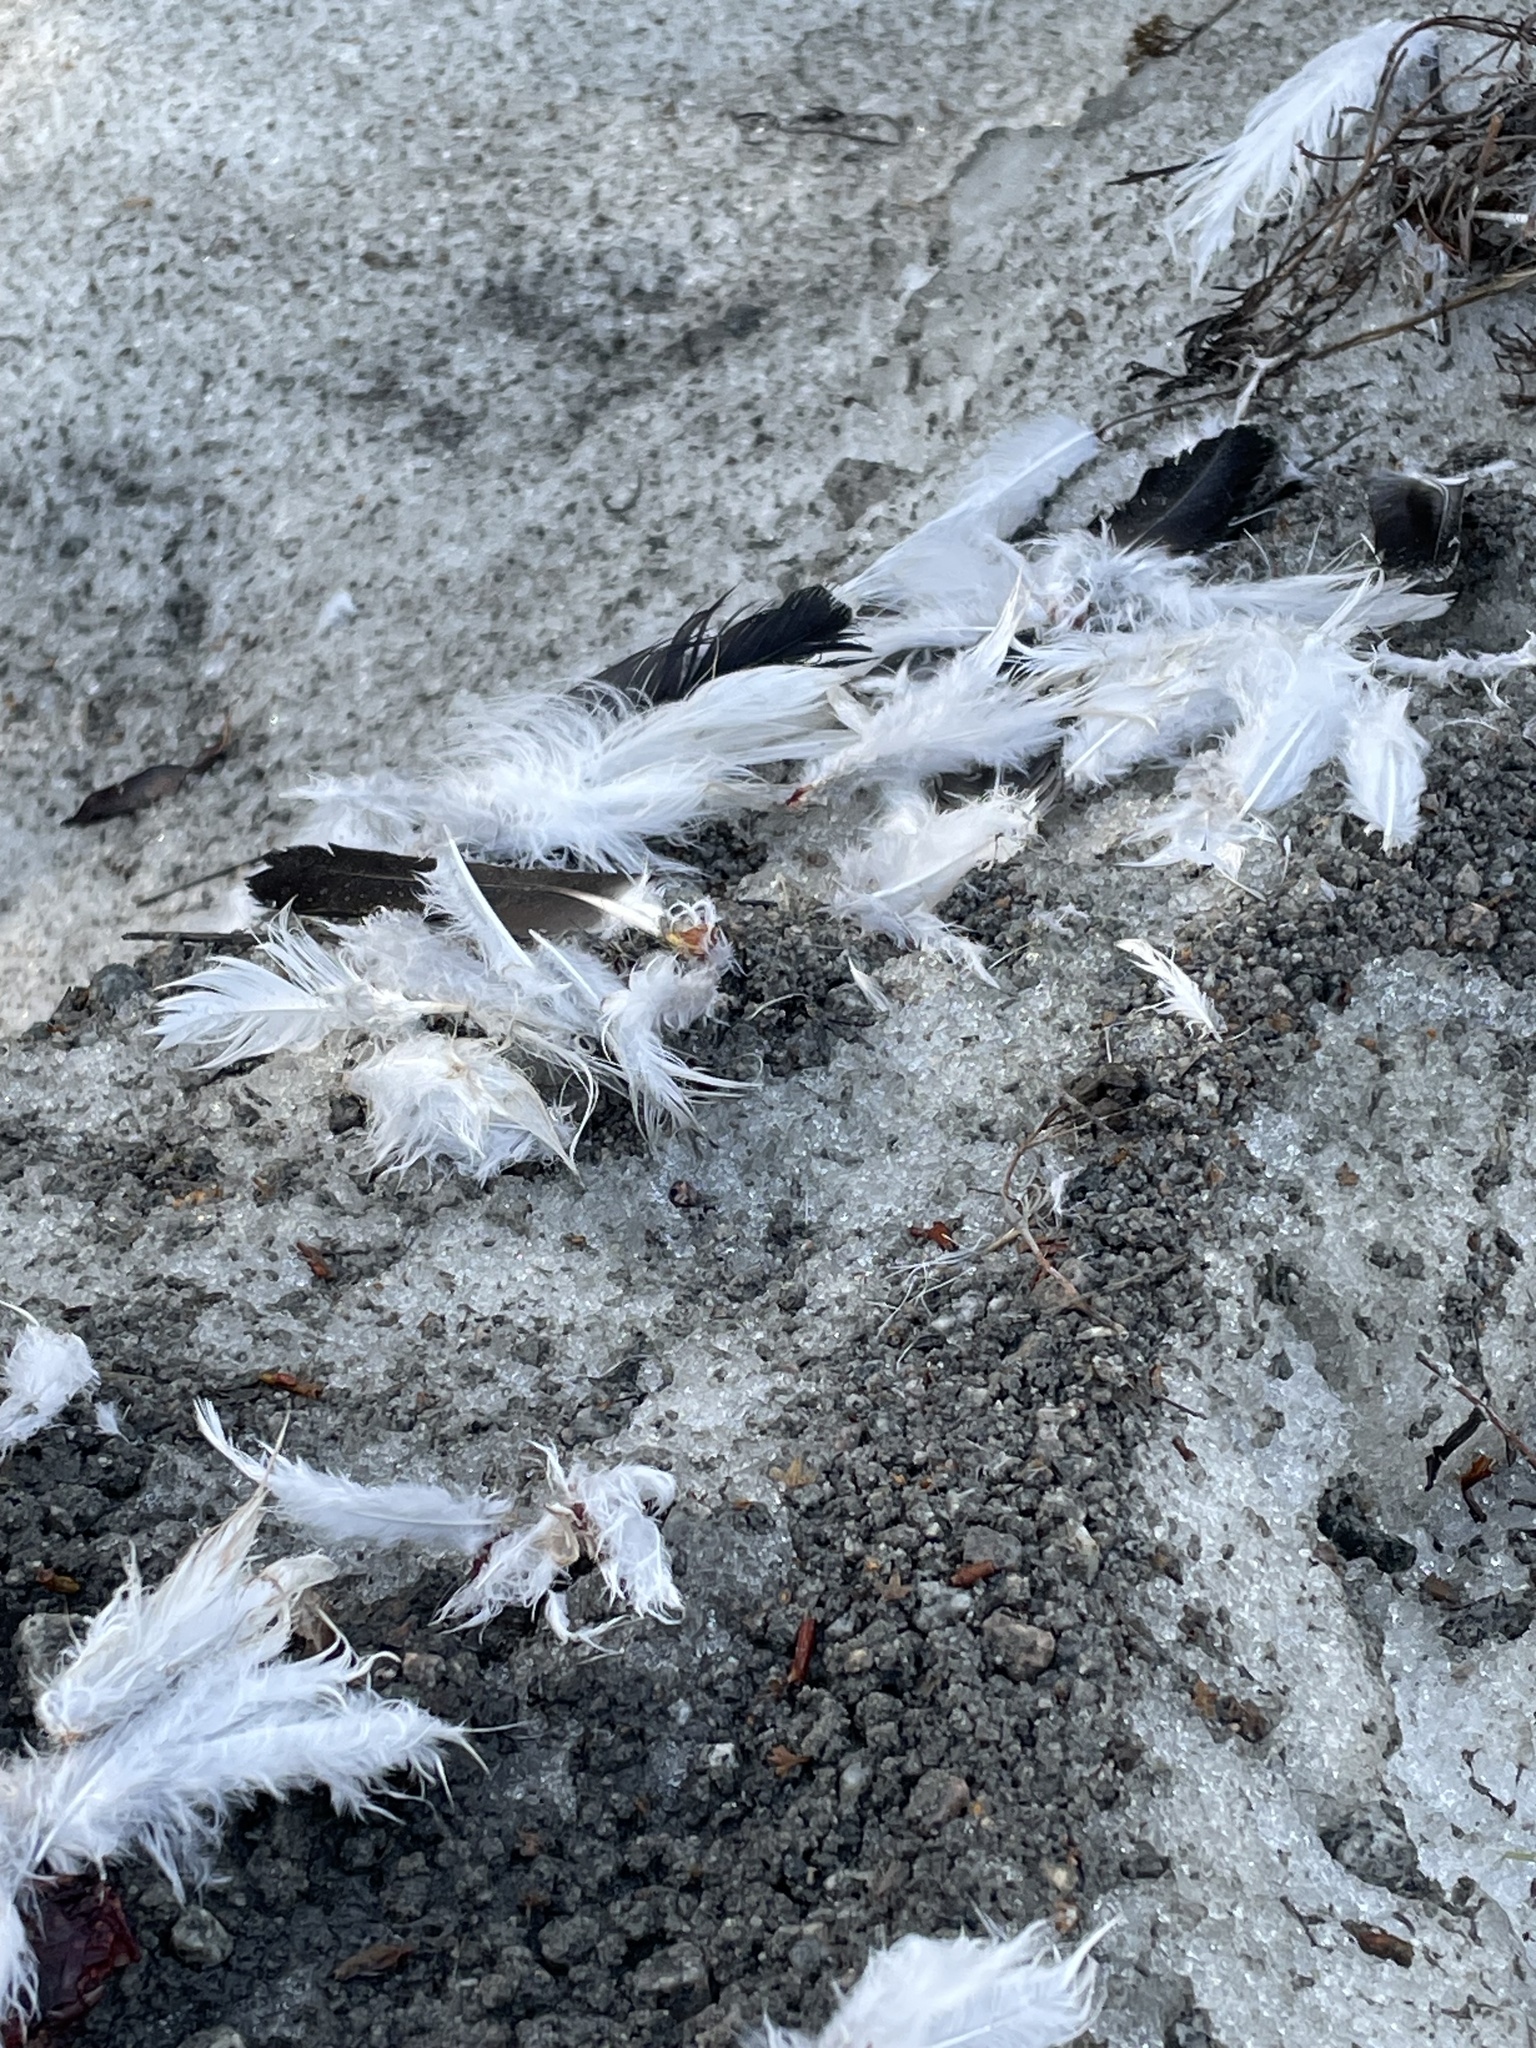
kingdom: Animalia
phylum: Chordata
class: Aves
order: Galliformes
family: Phasianidae
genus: Lagopus
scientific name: Lagopus lagopus
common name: Willow ptarmigan
